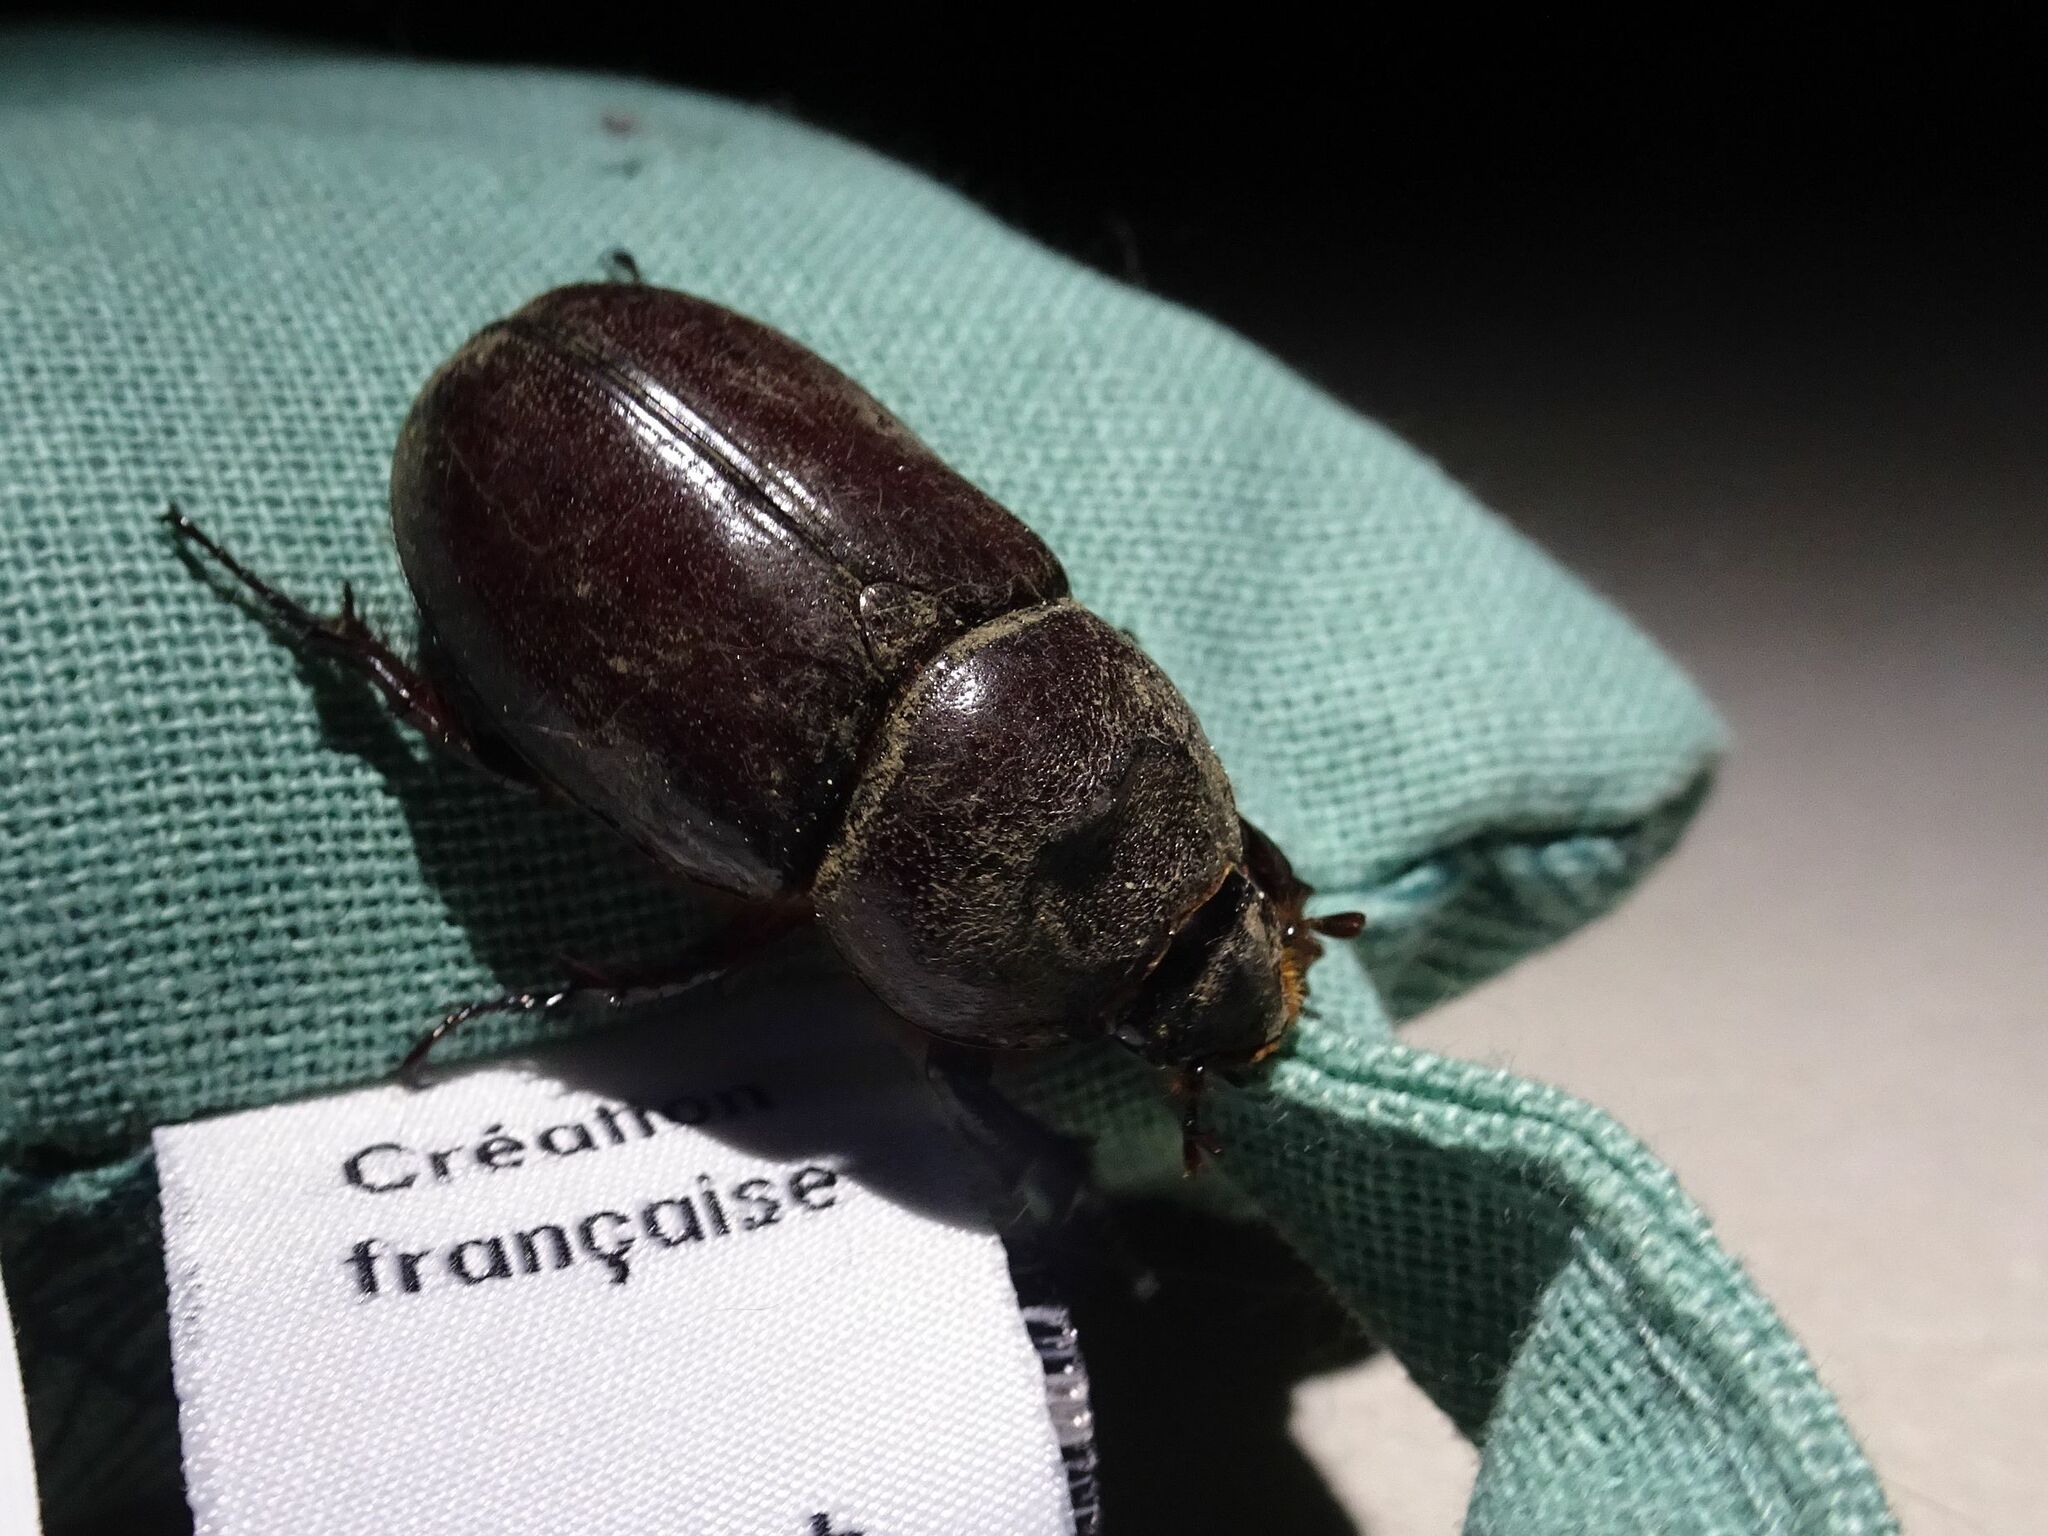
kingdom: Animalia
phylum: Arthropoda
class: Insecta
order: Coleoptera
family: Scarabaeidae
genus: Oryctes
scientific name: Oryctes nasicornis
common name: European rhinoceros beetle
